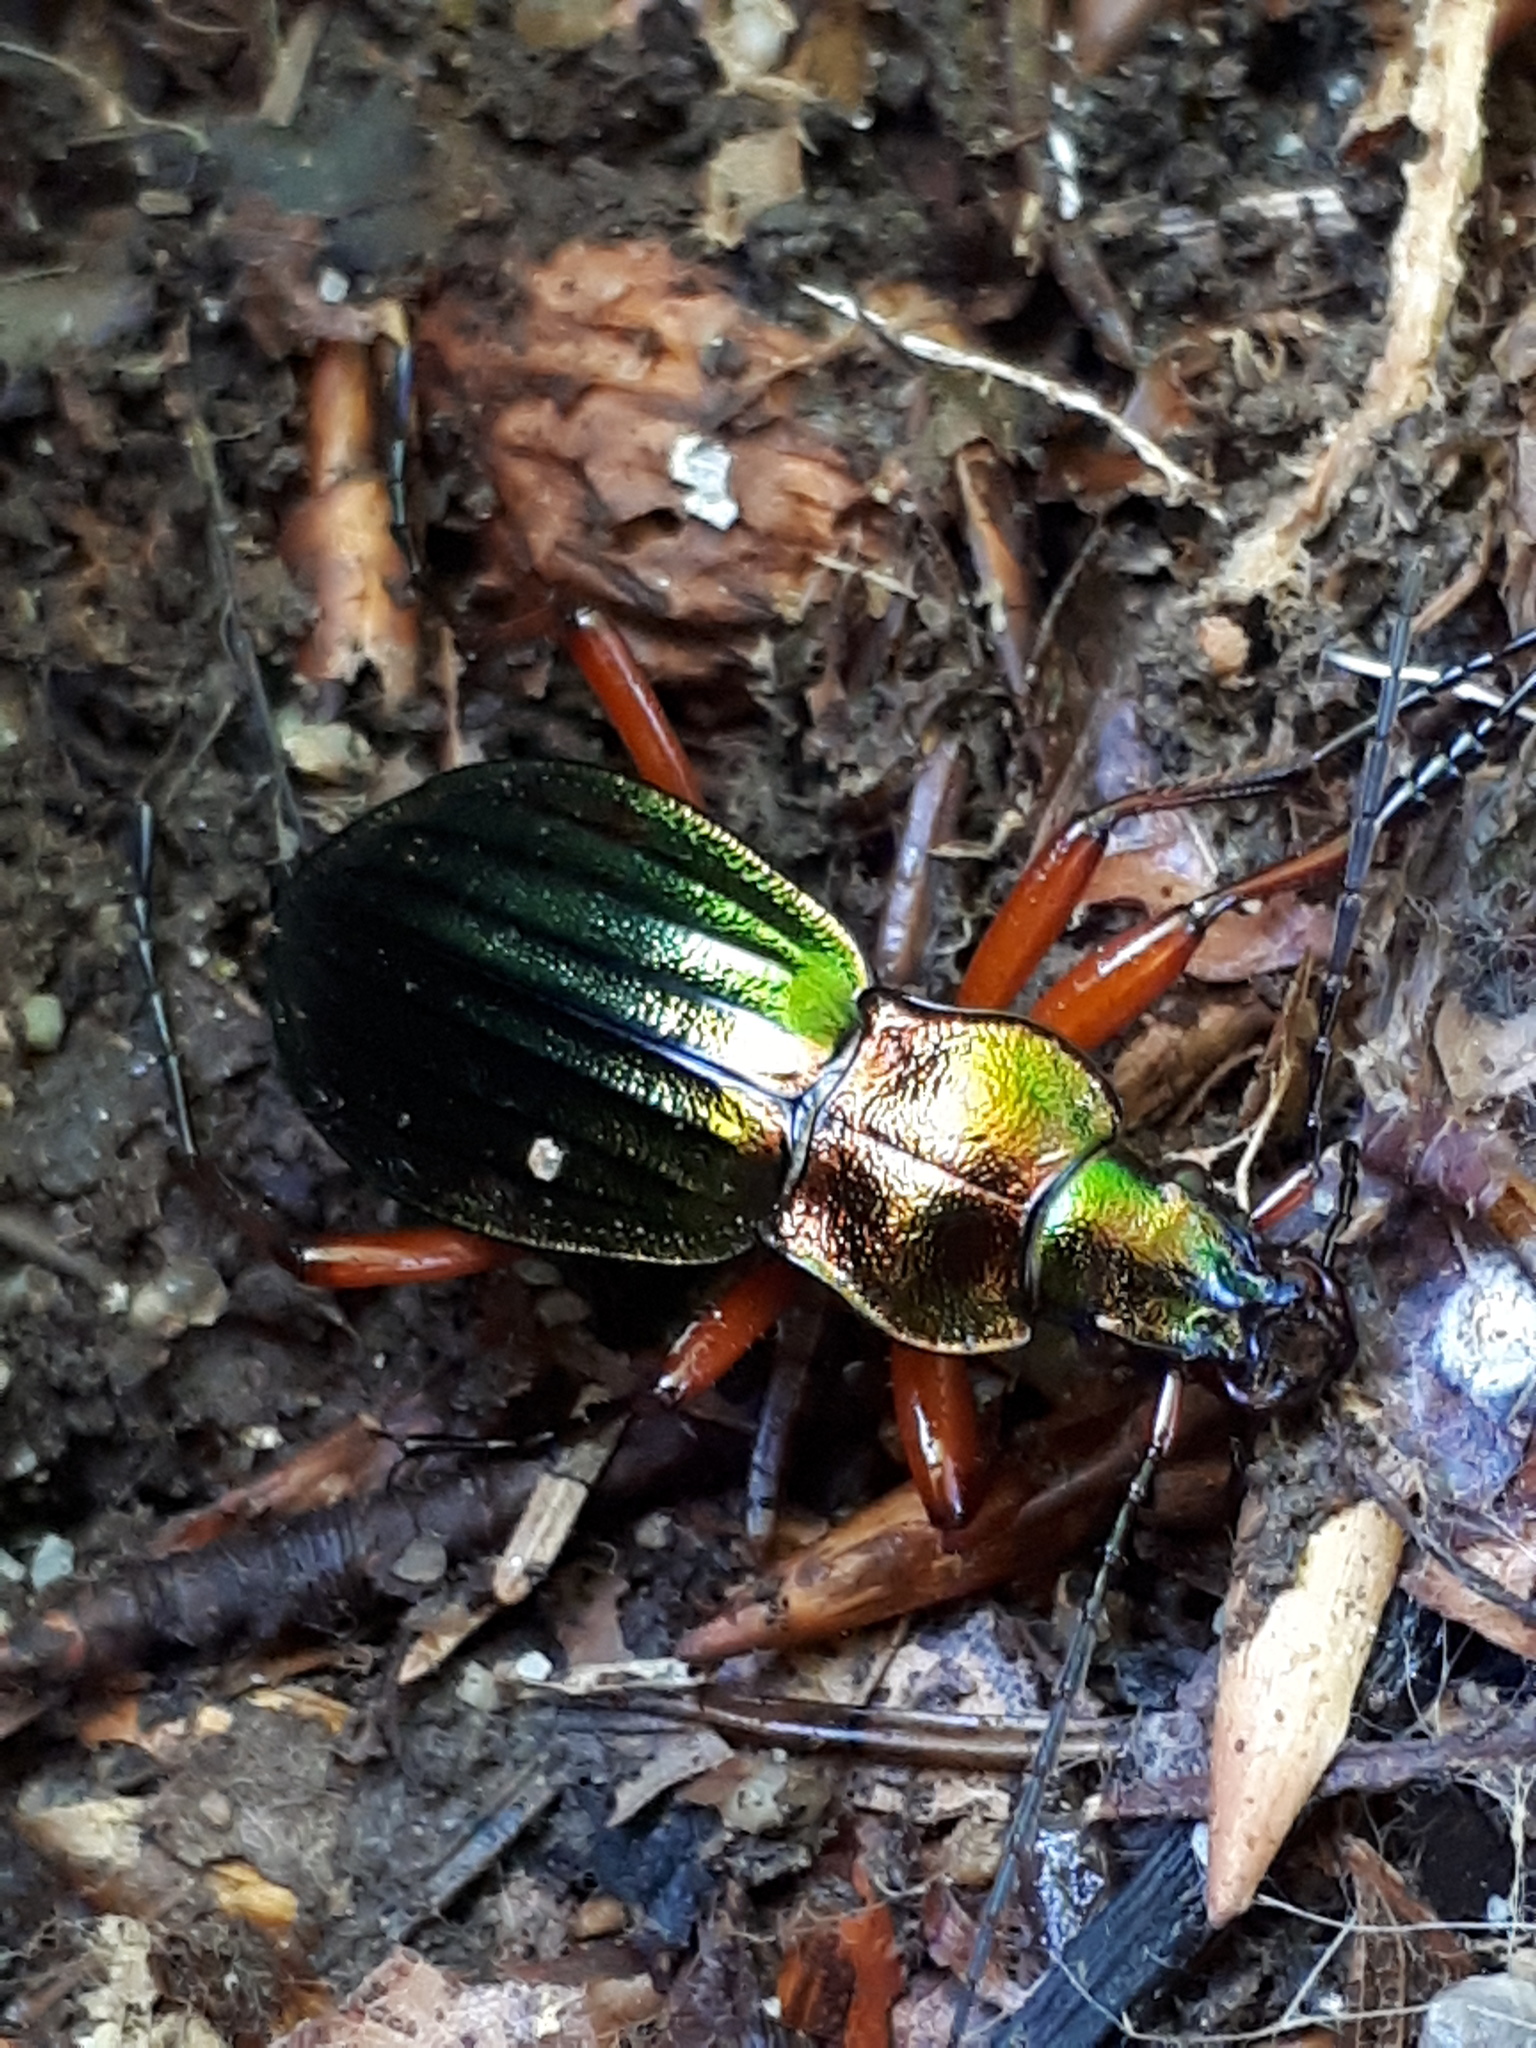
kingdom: Animalia
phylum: Arthropoda
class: Insecta
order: Coleoptera
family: Carabidae
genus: Carabus
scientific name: Carabus auronitens
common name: Carabus auronitens
